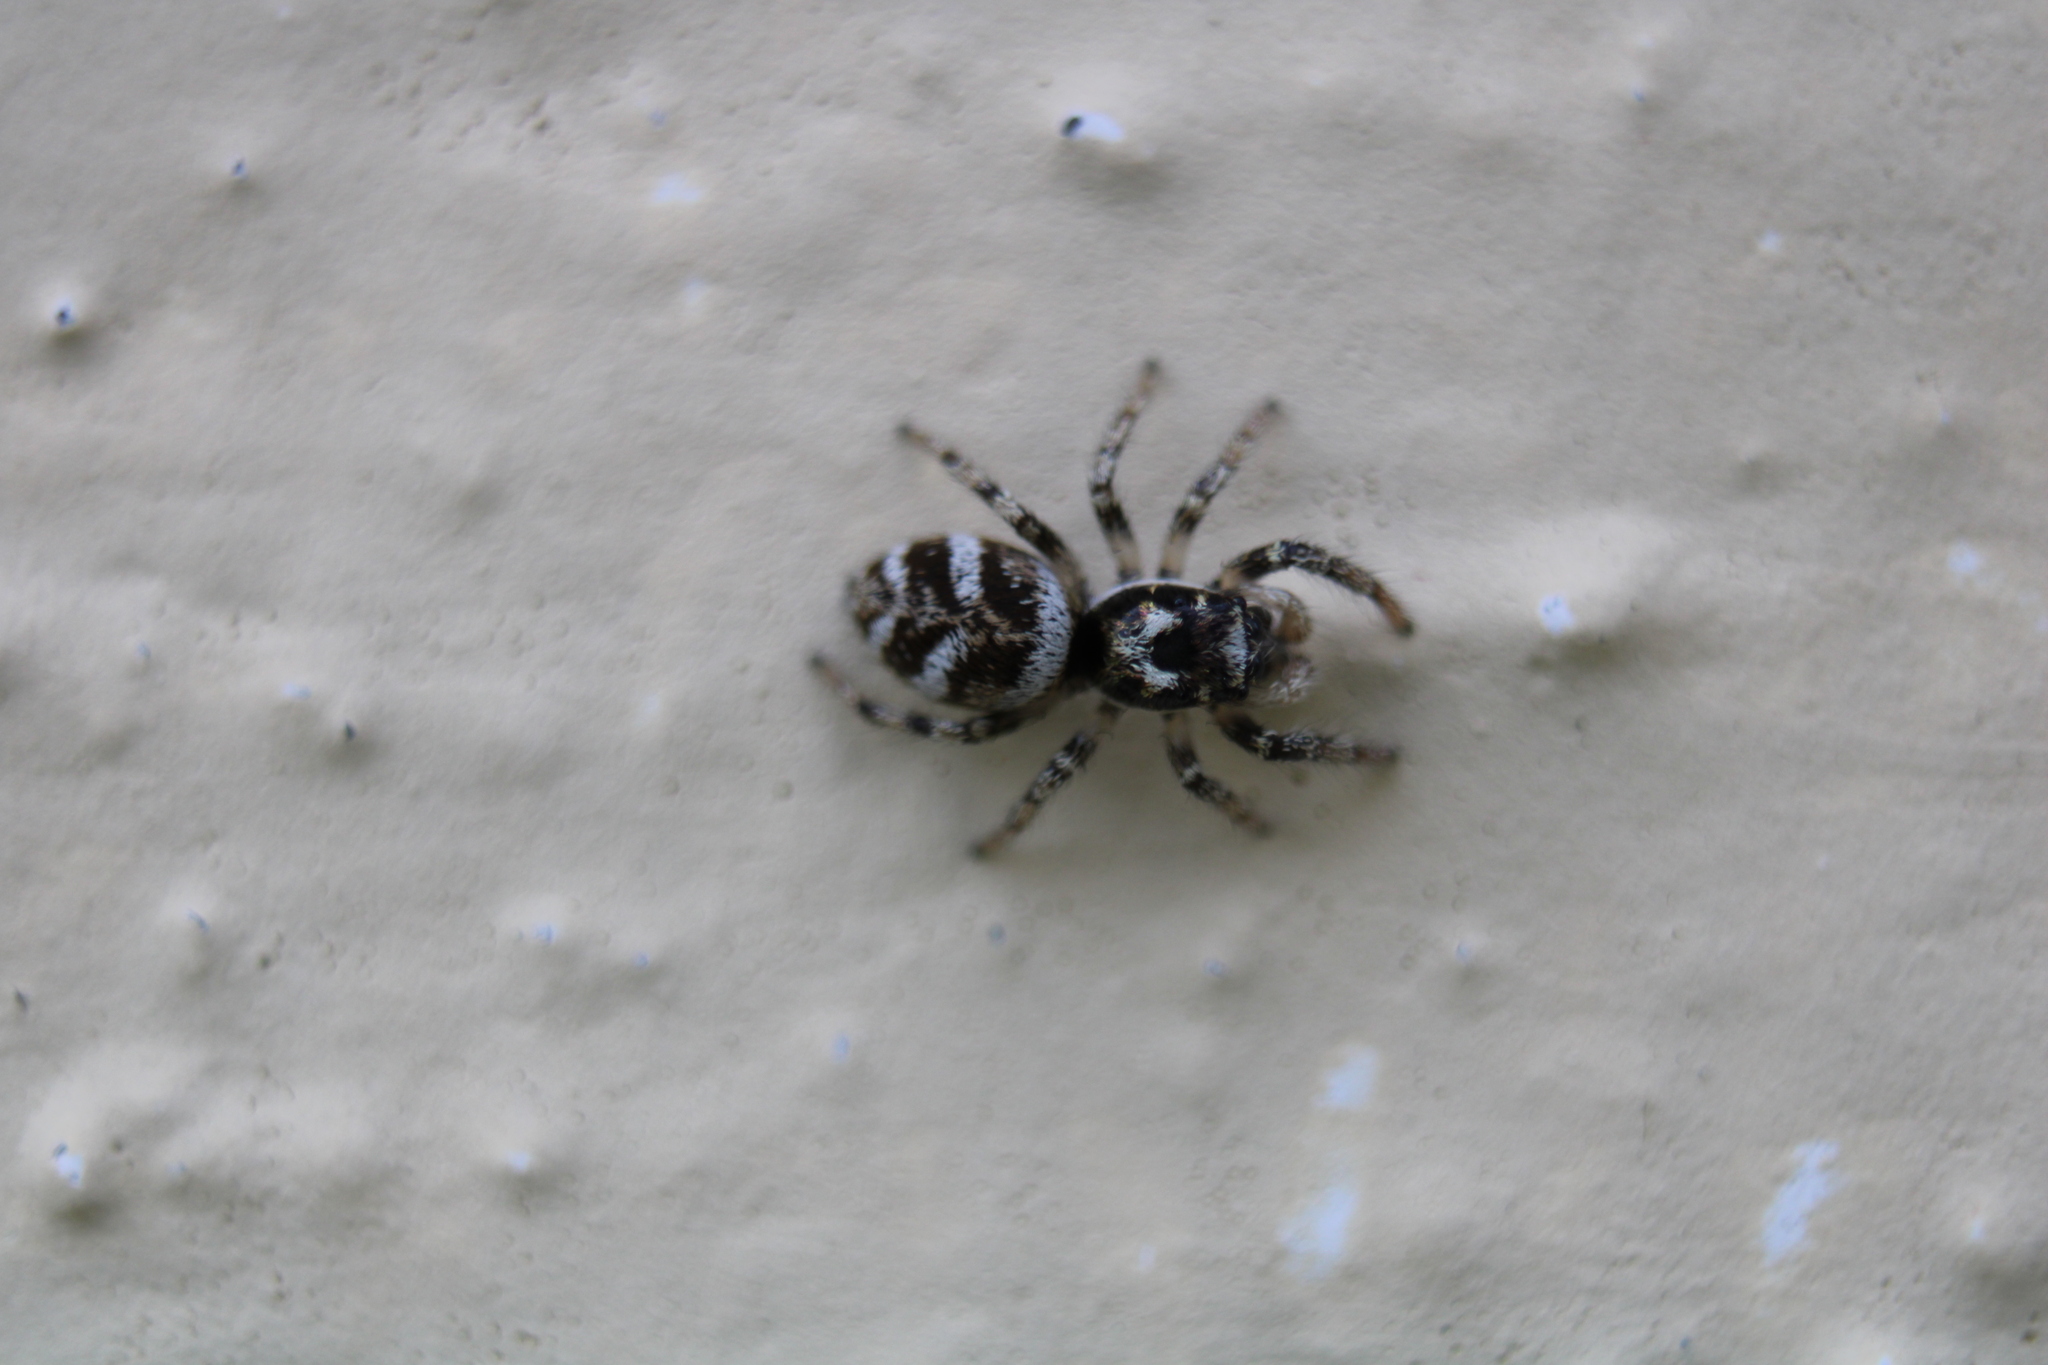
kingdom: Animalia
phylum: Arthropoda
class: Arachnida
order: Araneae
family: Salticidae
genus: Salticus
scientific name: Salticus scenicus
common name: Zebra jumper
